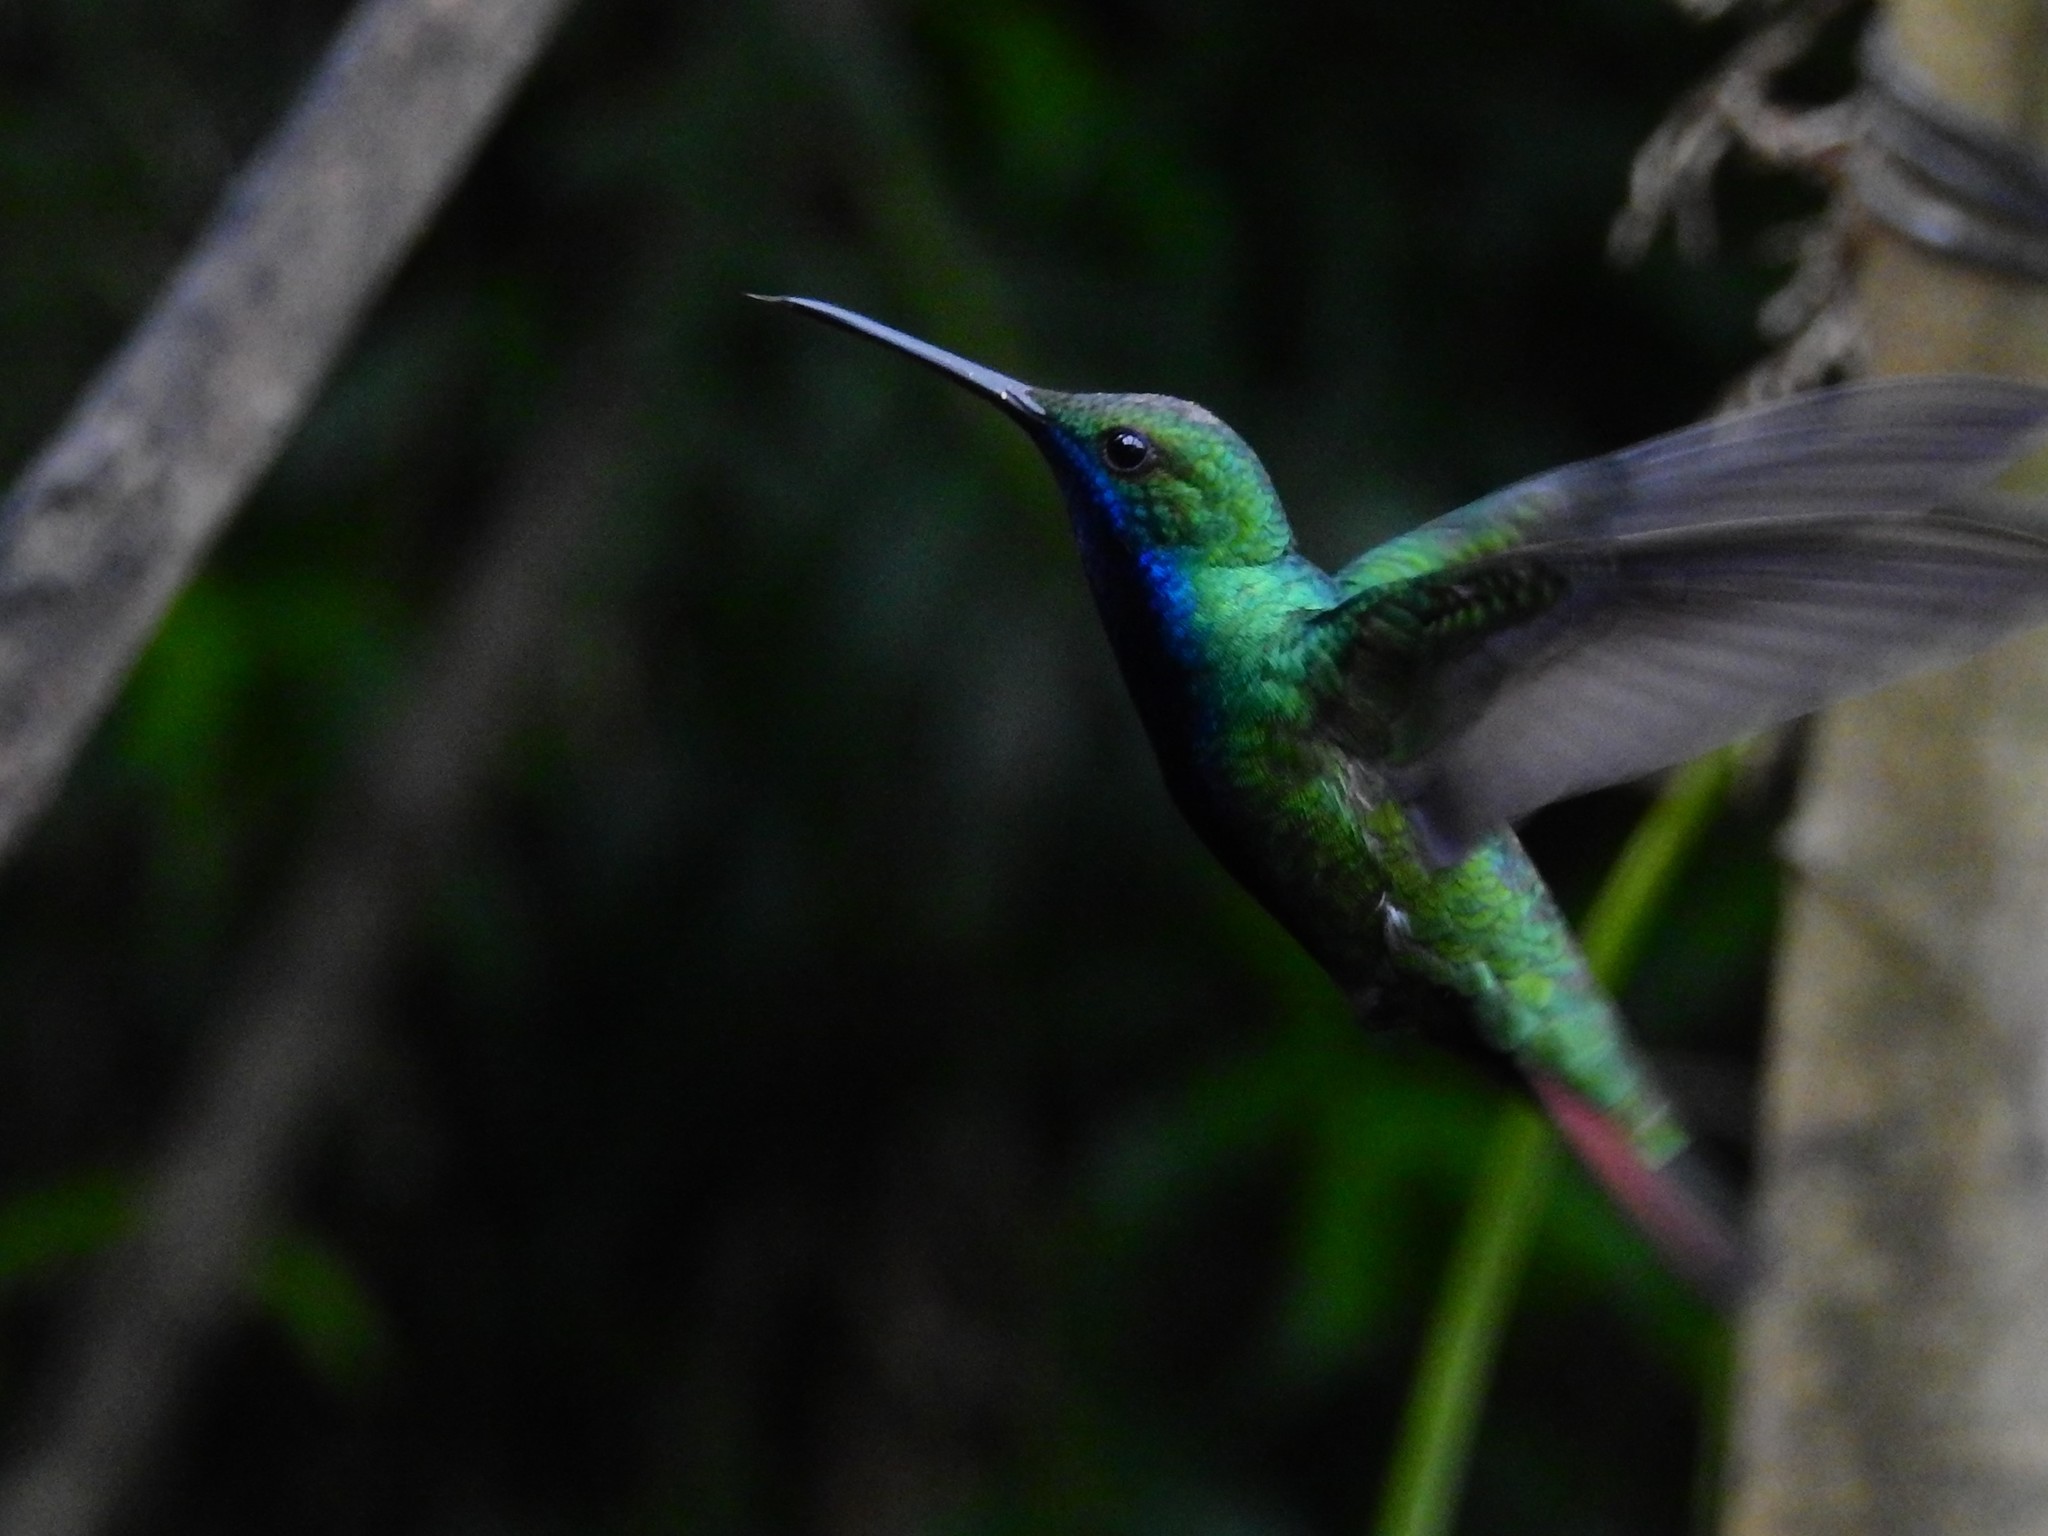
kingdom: Animalia
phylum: Chordata
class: Aves
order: Apodiformes
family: Trochilidae
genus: Anthracothorax
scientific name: Anthracothorax nigricollis
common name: Black-throated mango
